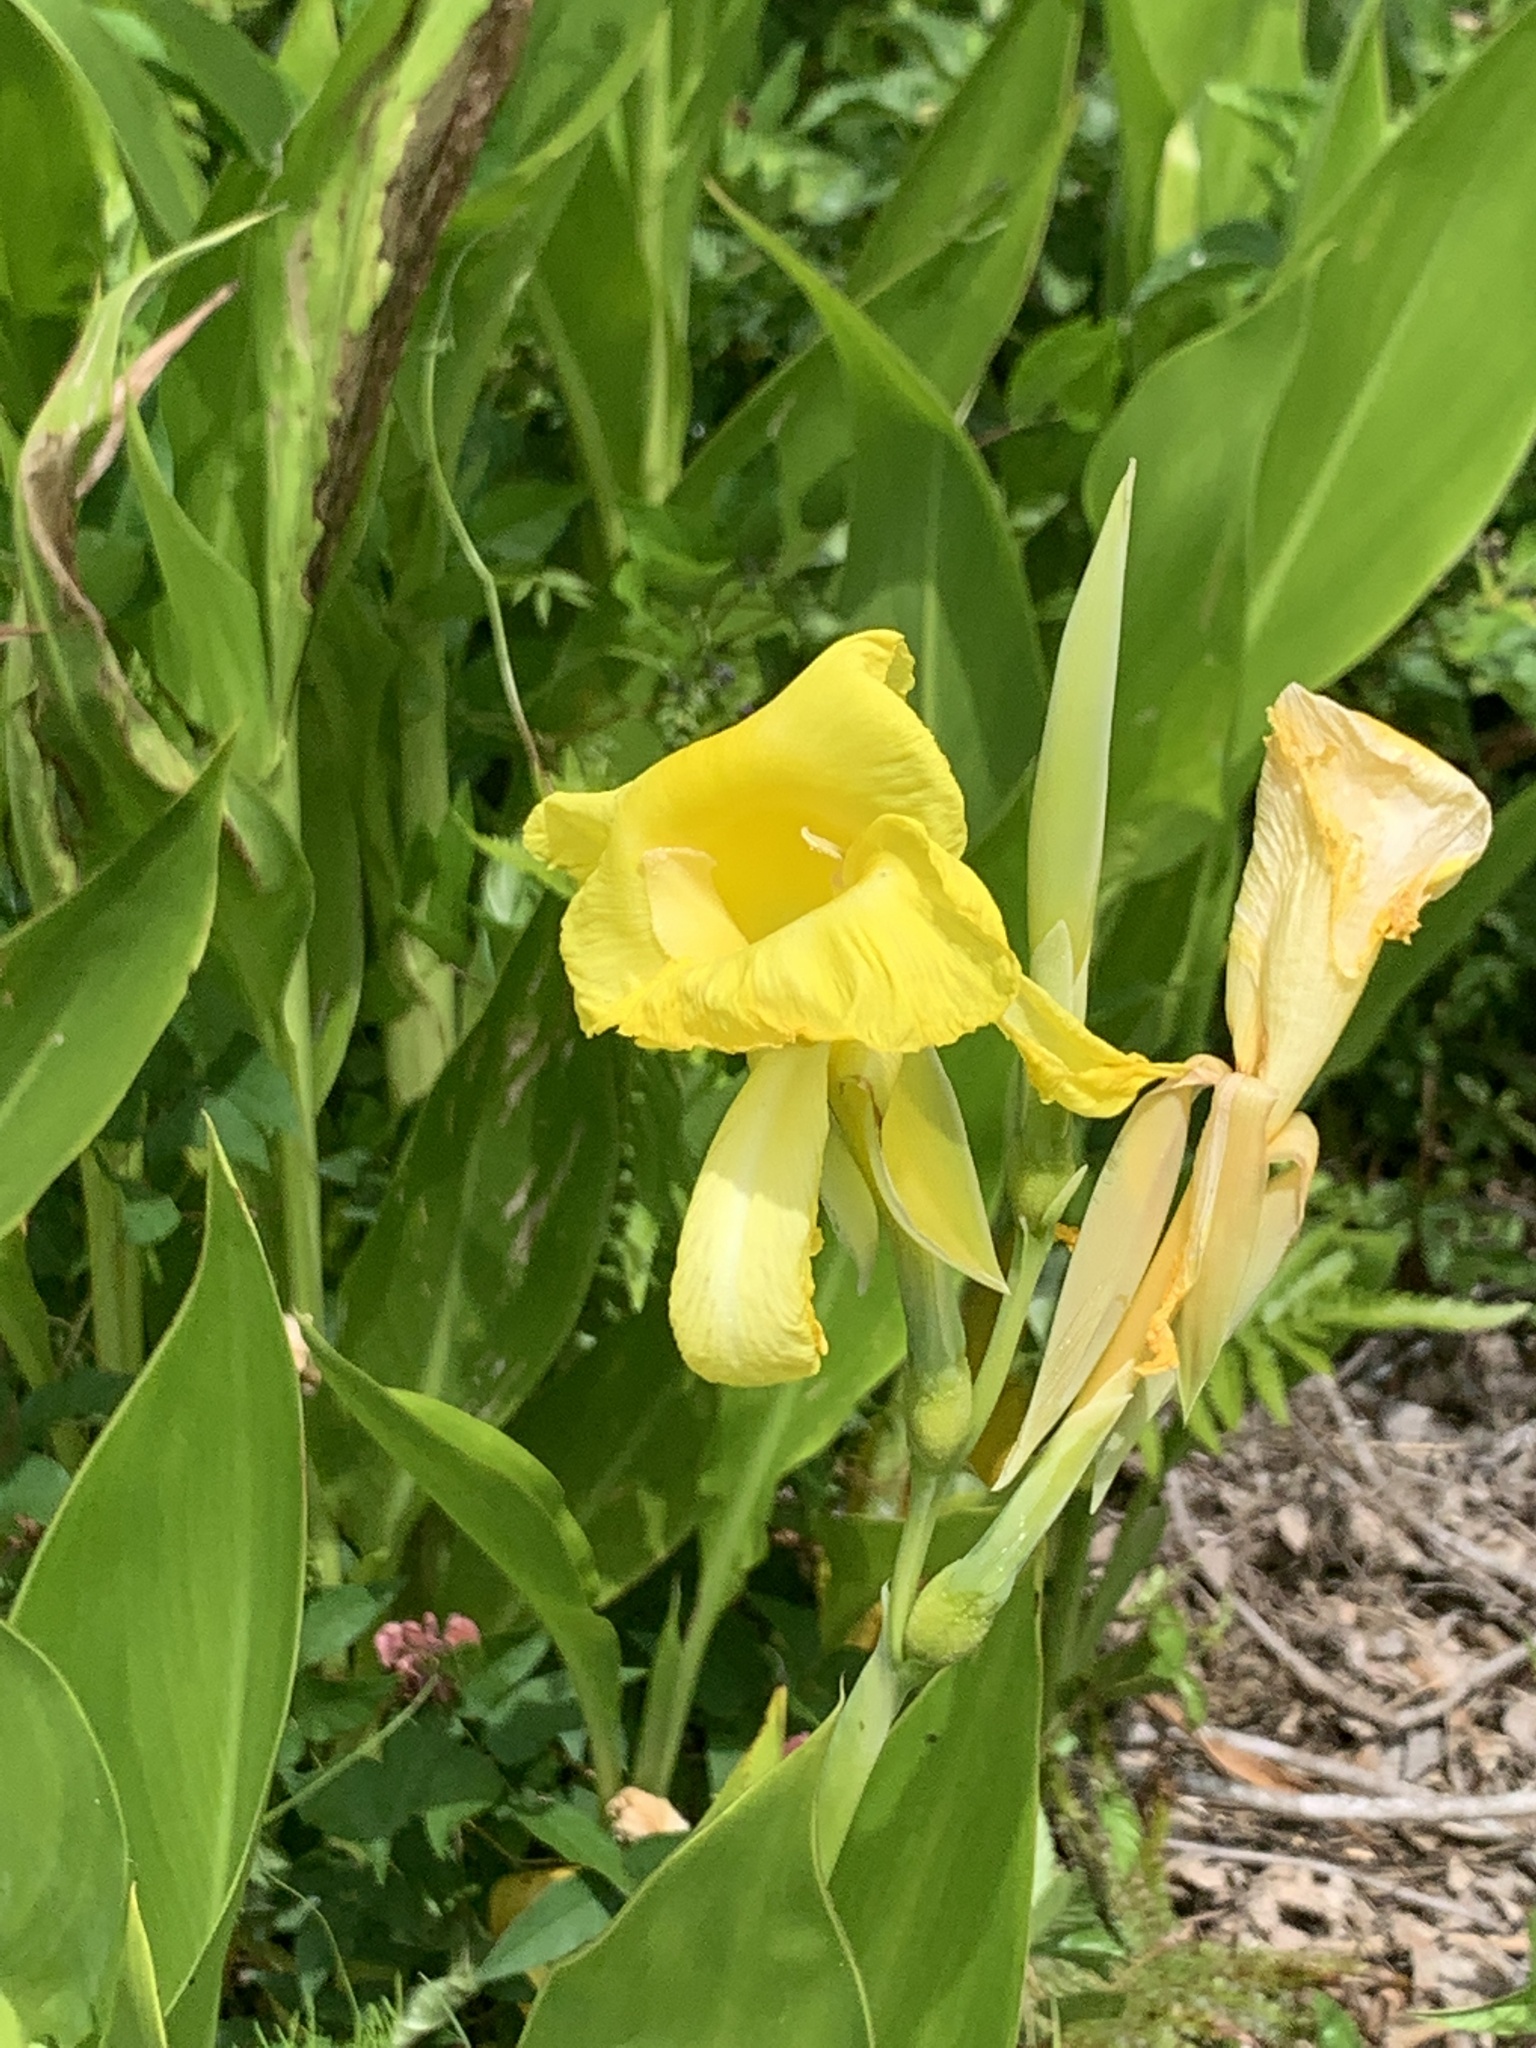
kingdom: Plantae
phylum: Tracheophyta
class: Liliopsida
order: Zingiberales
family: Cannaceae
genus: Canna
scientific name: Canna flaccida
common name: Bandana-of-the-everglades
